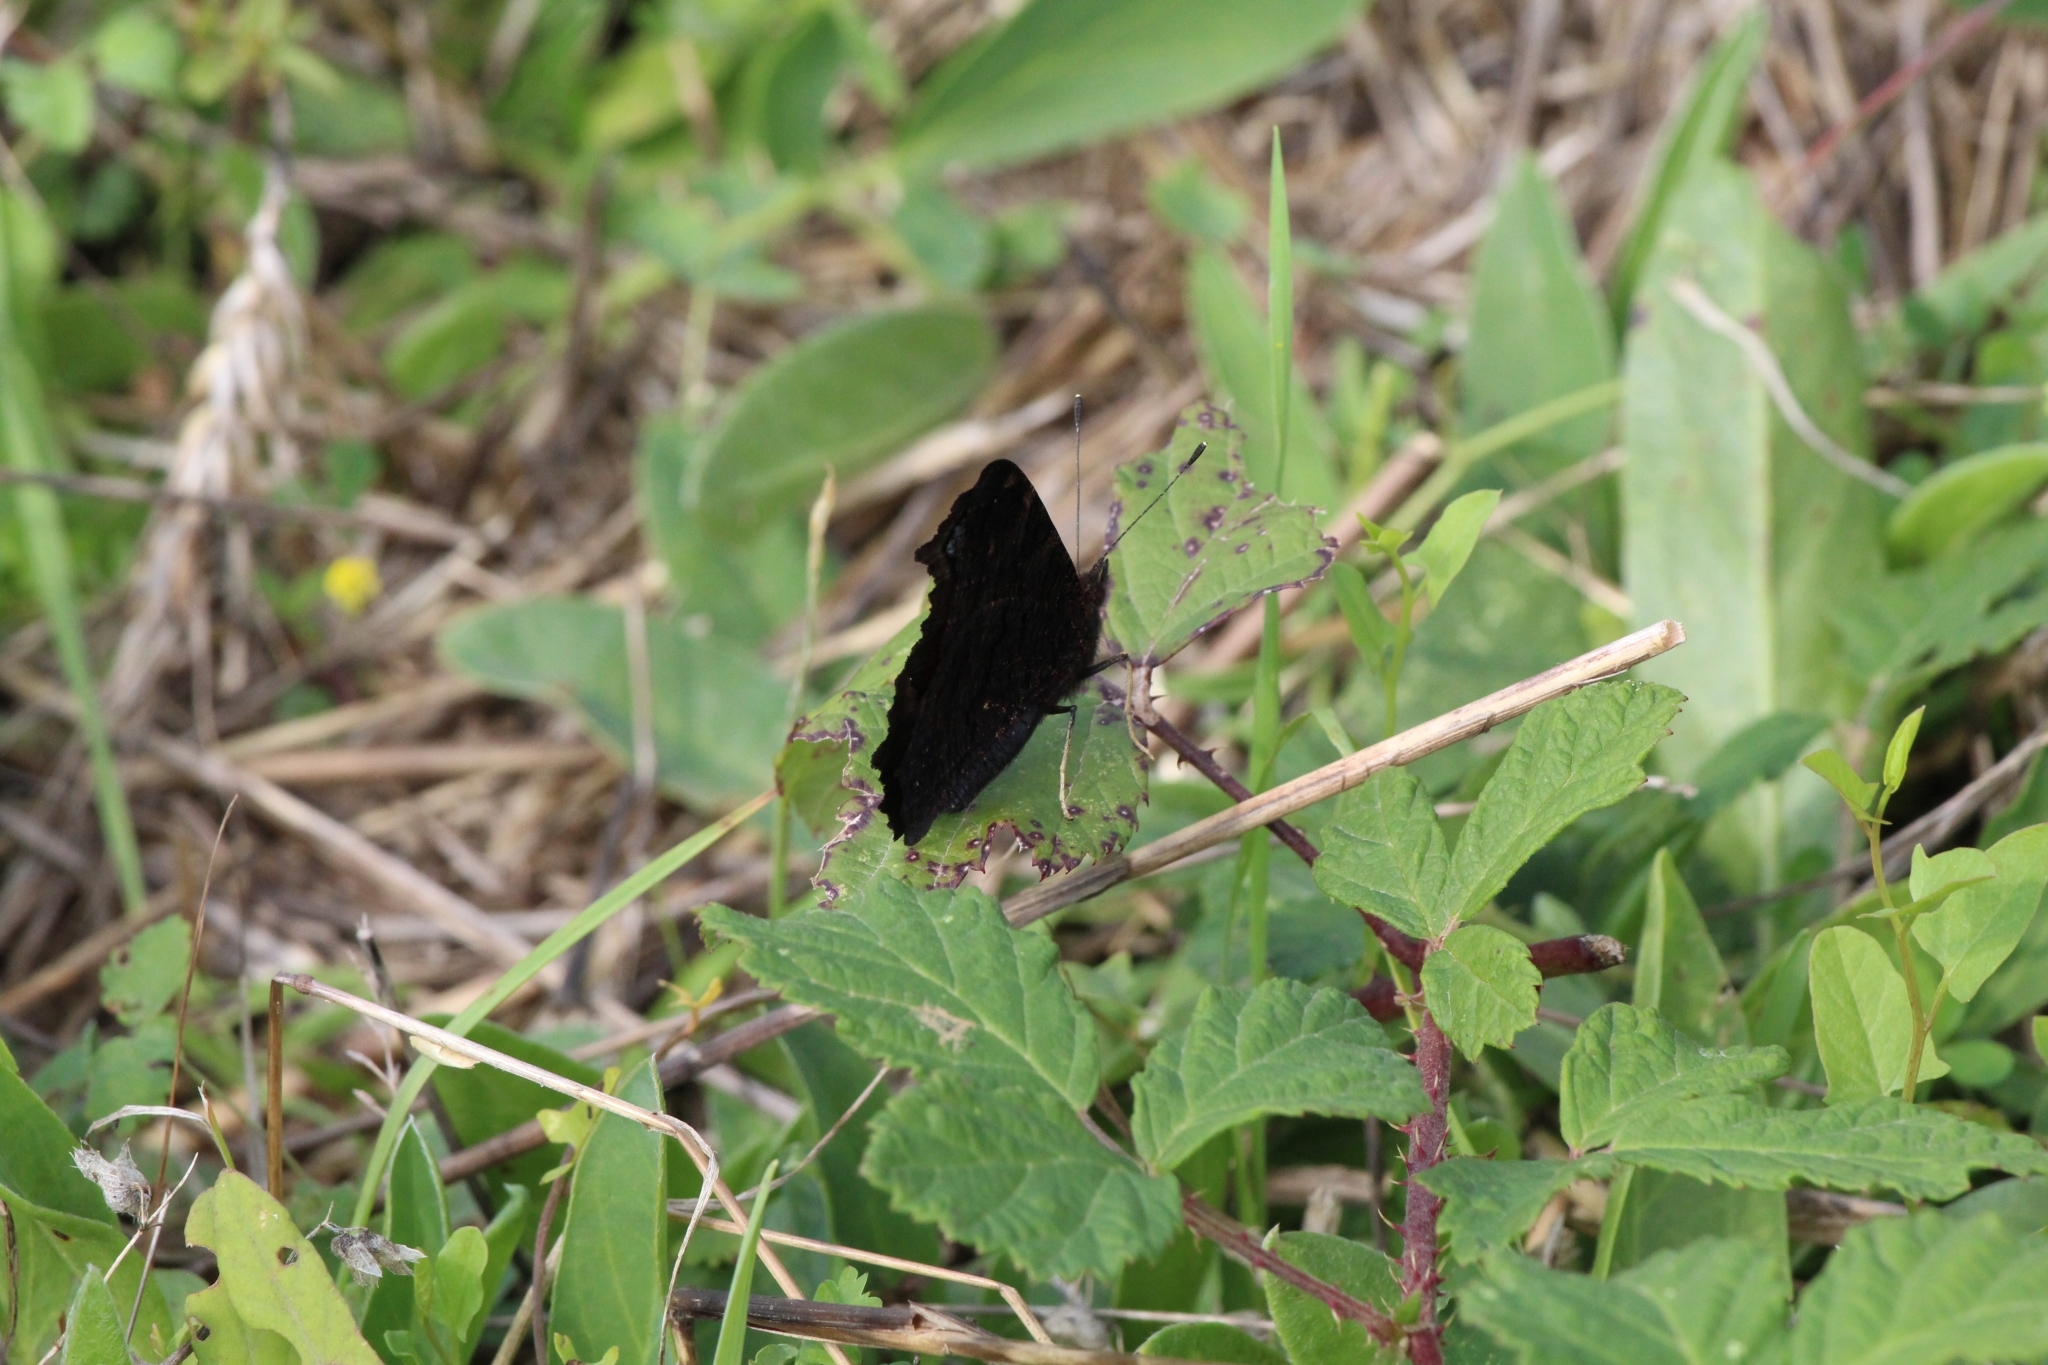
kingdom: Animalia
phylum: Arthropoda
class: Insecta
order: Lepidoptera
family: Nymphalidae
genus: Aglais
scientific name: Aglais io
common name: Peacock
